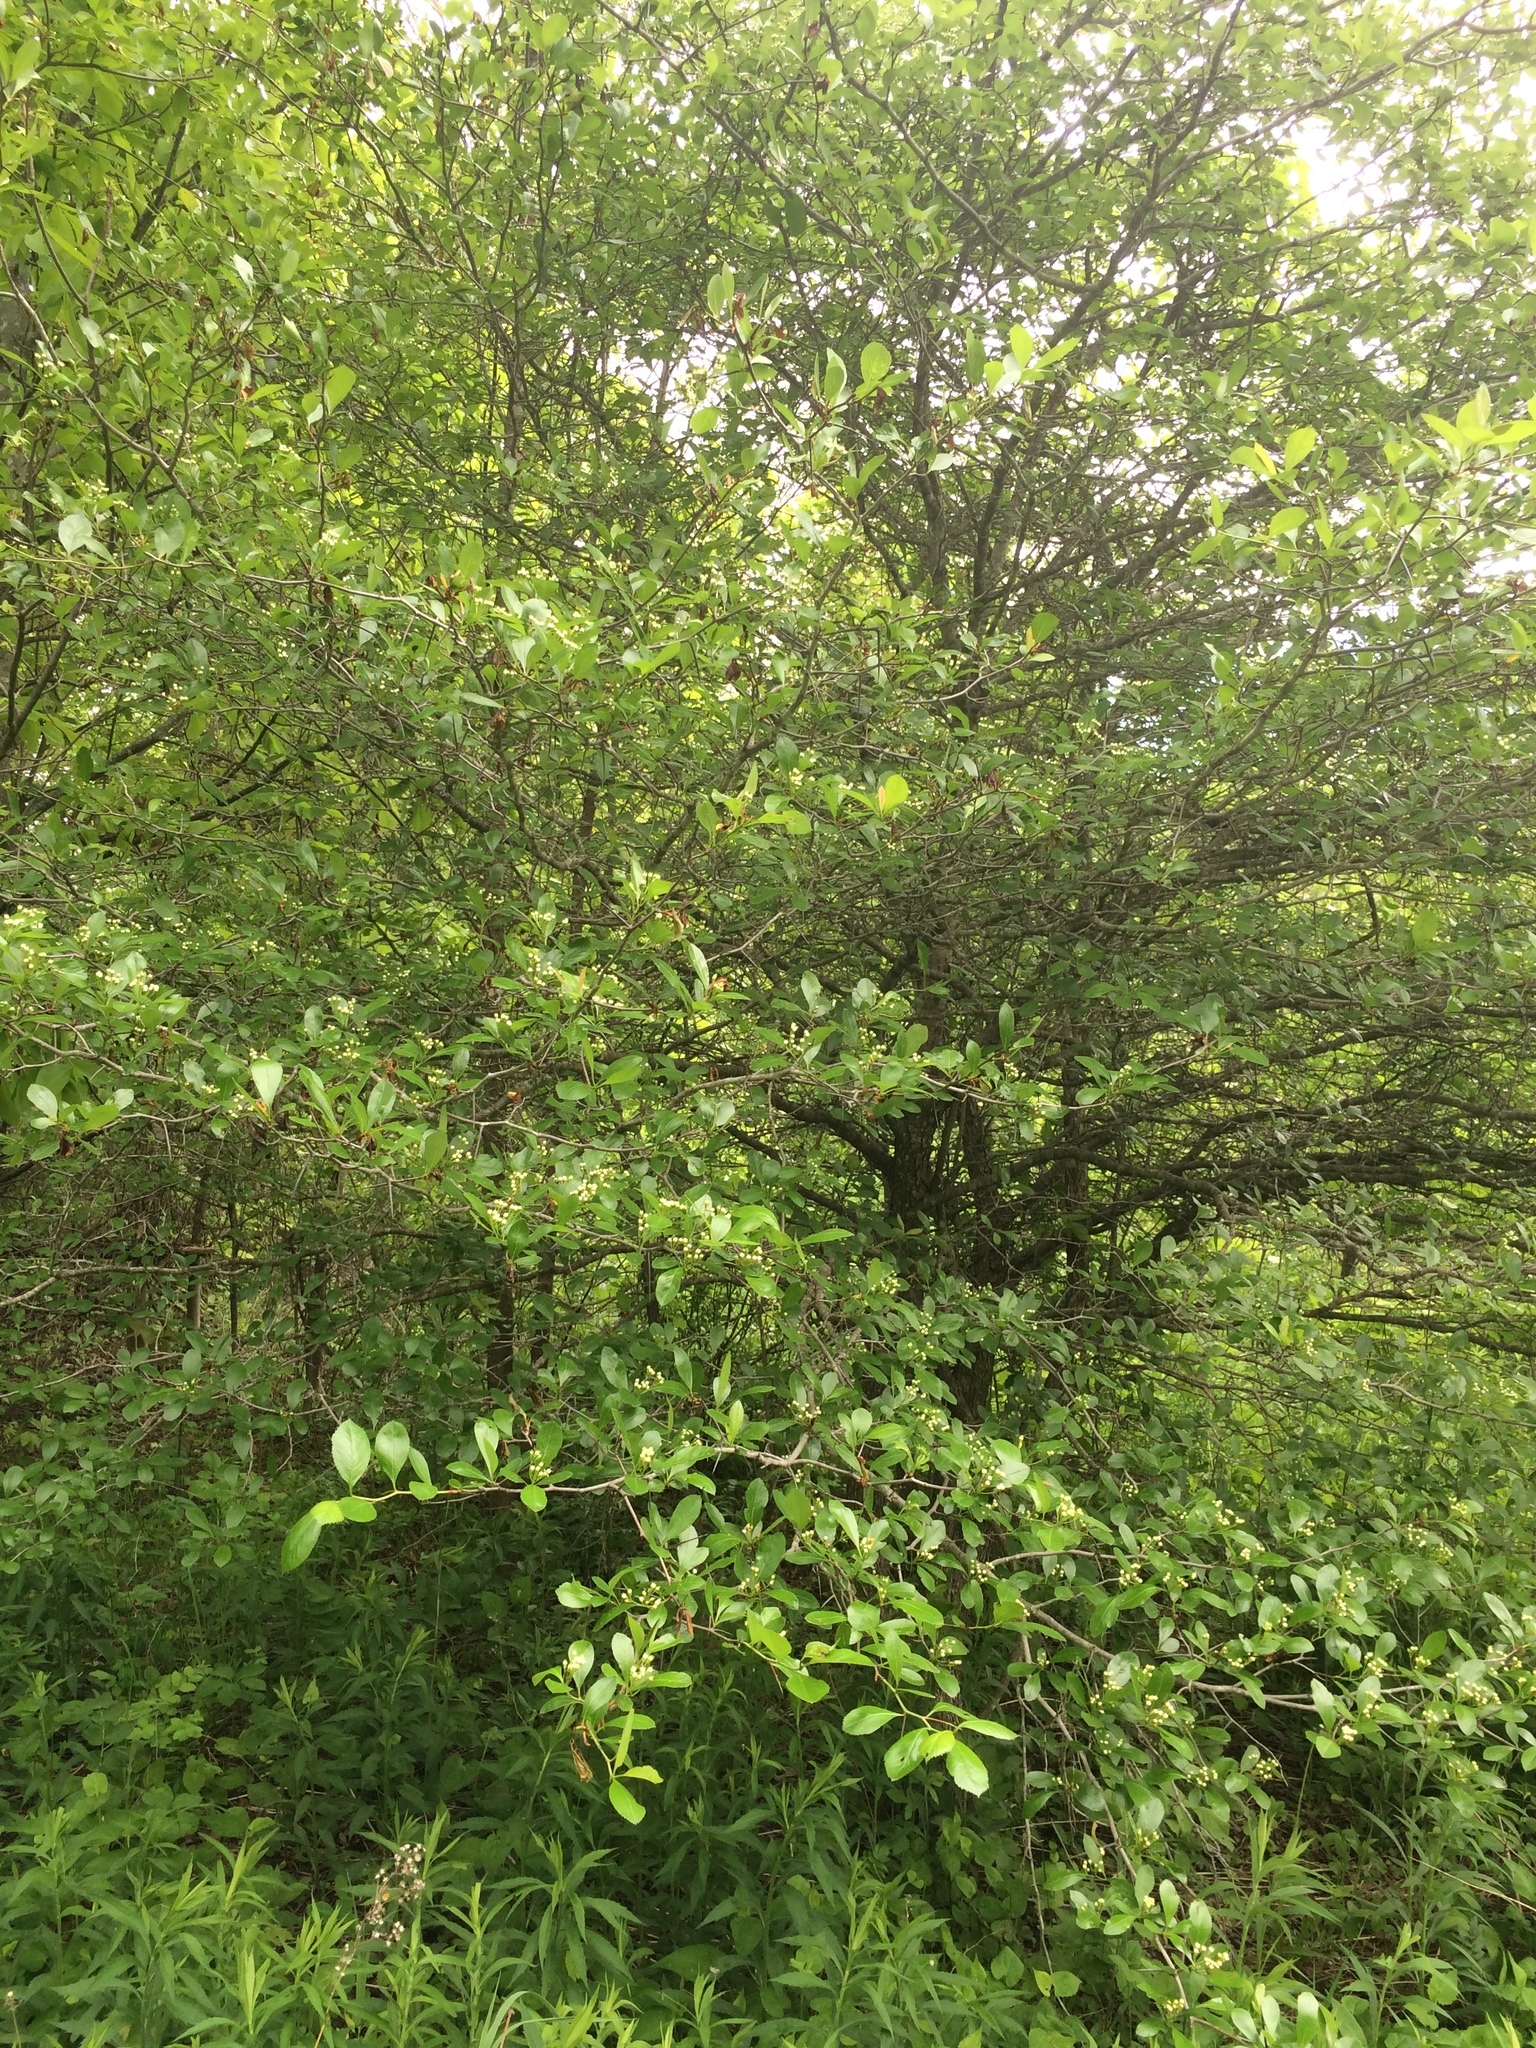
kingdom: Plantae
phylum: Tracheophyta
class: Magnoliopsida
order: Rosales
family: Rosaceae
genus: Crataegus
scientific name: Crataegus crus-galli
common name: Cockspurthorn
